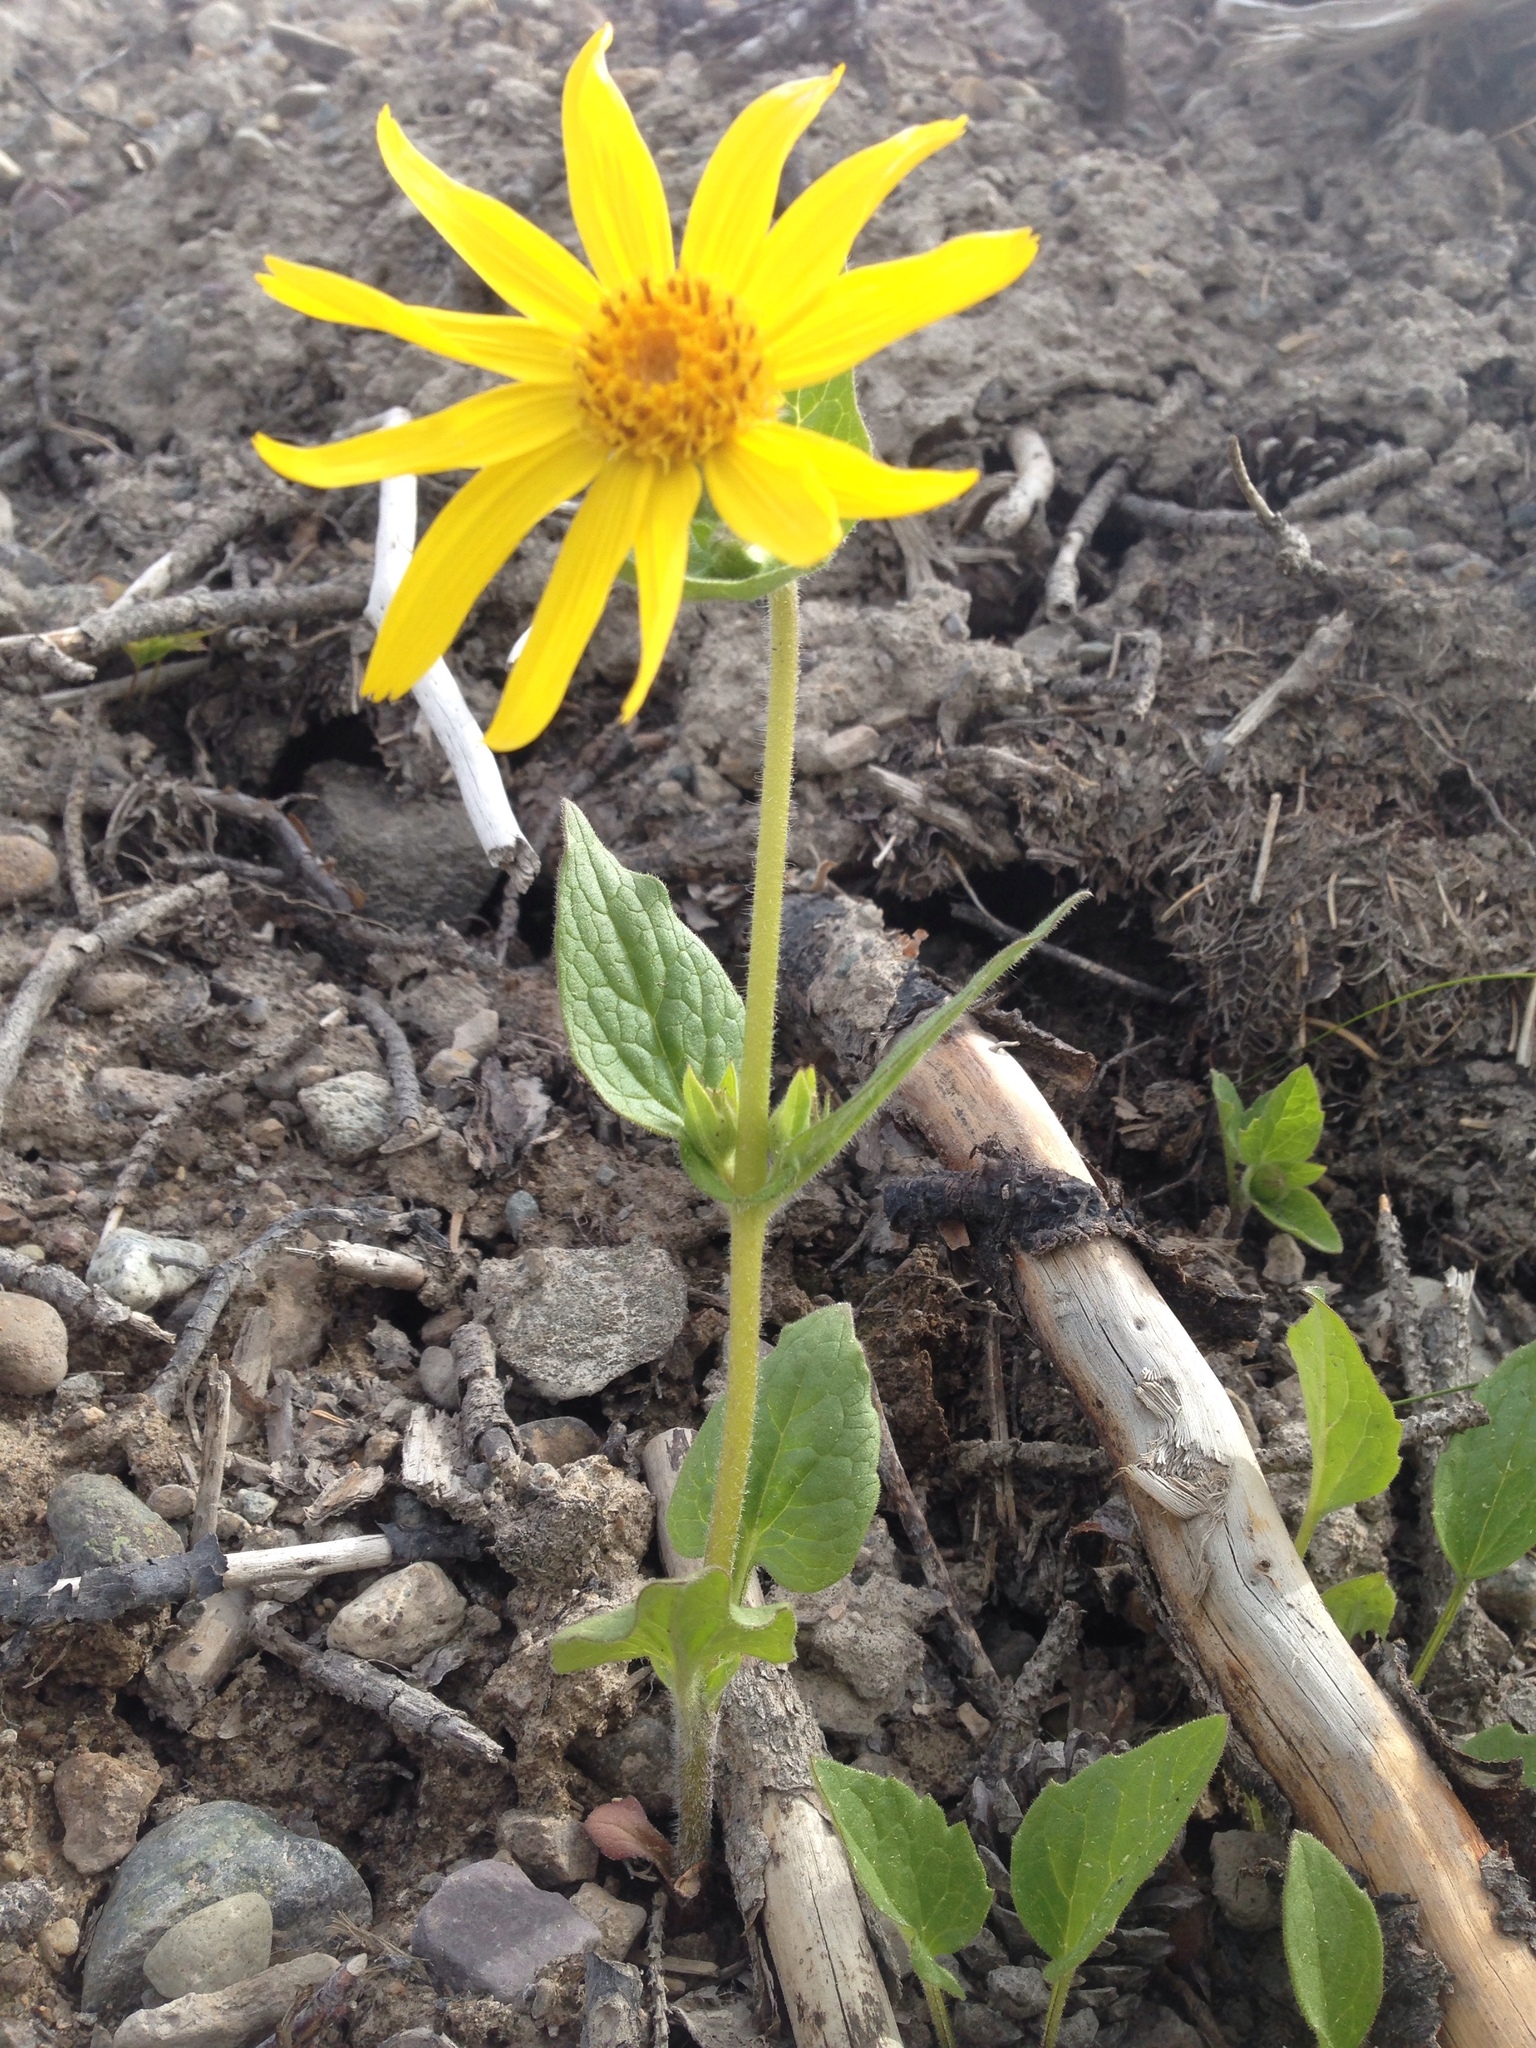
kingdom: Plantae
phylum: Tracheophyta
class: Magnoliopsida
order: Asterales
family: Asteraceae
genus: Arnica
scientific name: Arnica cordifolia
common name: Heart-leaf arnica
